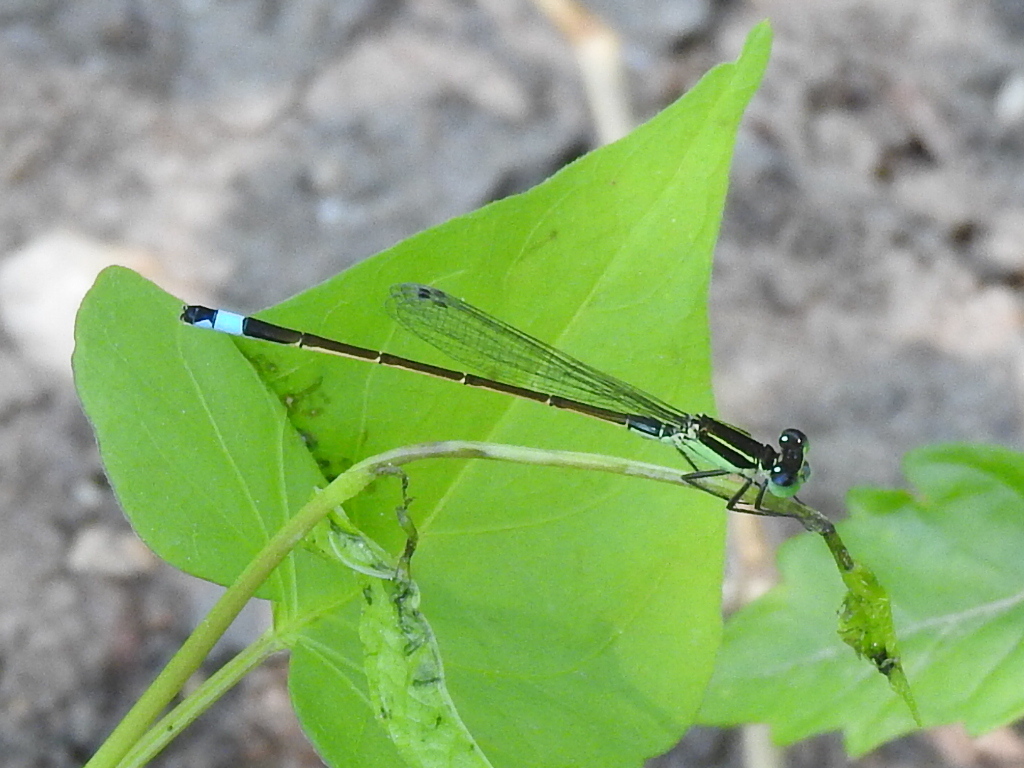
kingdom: Animalia
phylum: Arthropoda
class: Insecta
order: Odonata
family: Coenagrionidae
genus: Ischnura
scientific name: Ischnura ramburii
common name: Rambur's forktail
